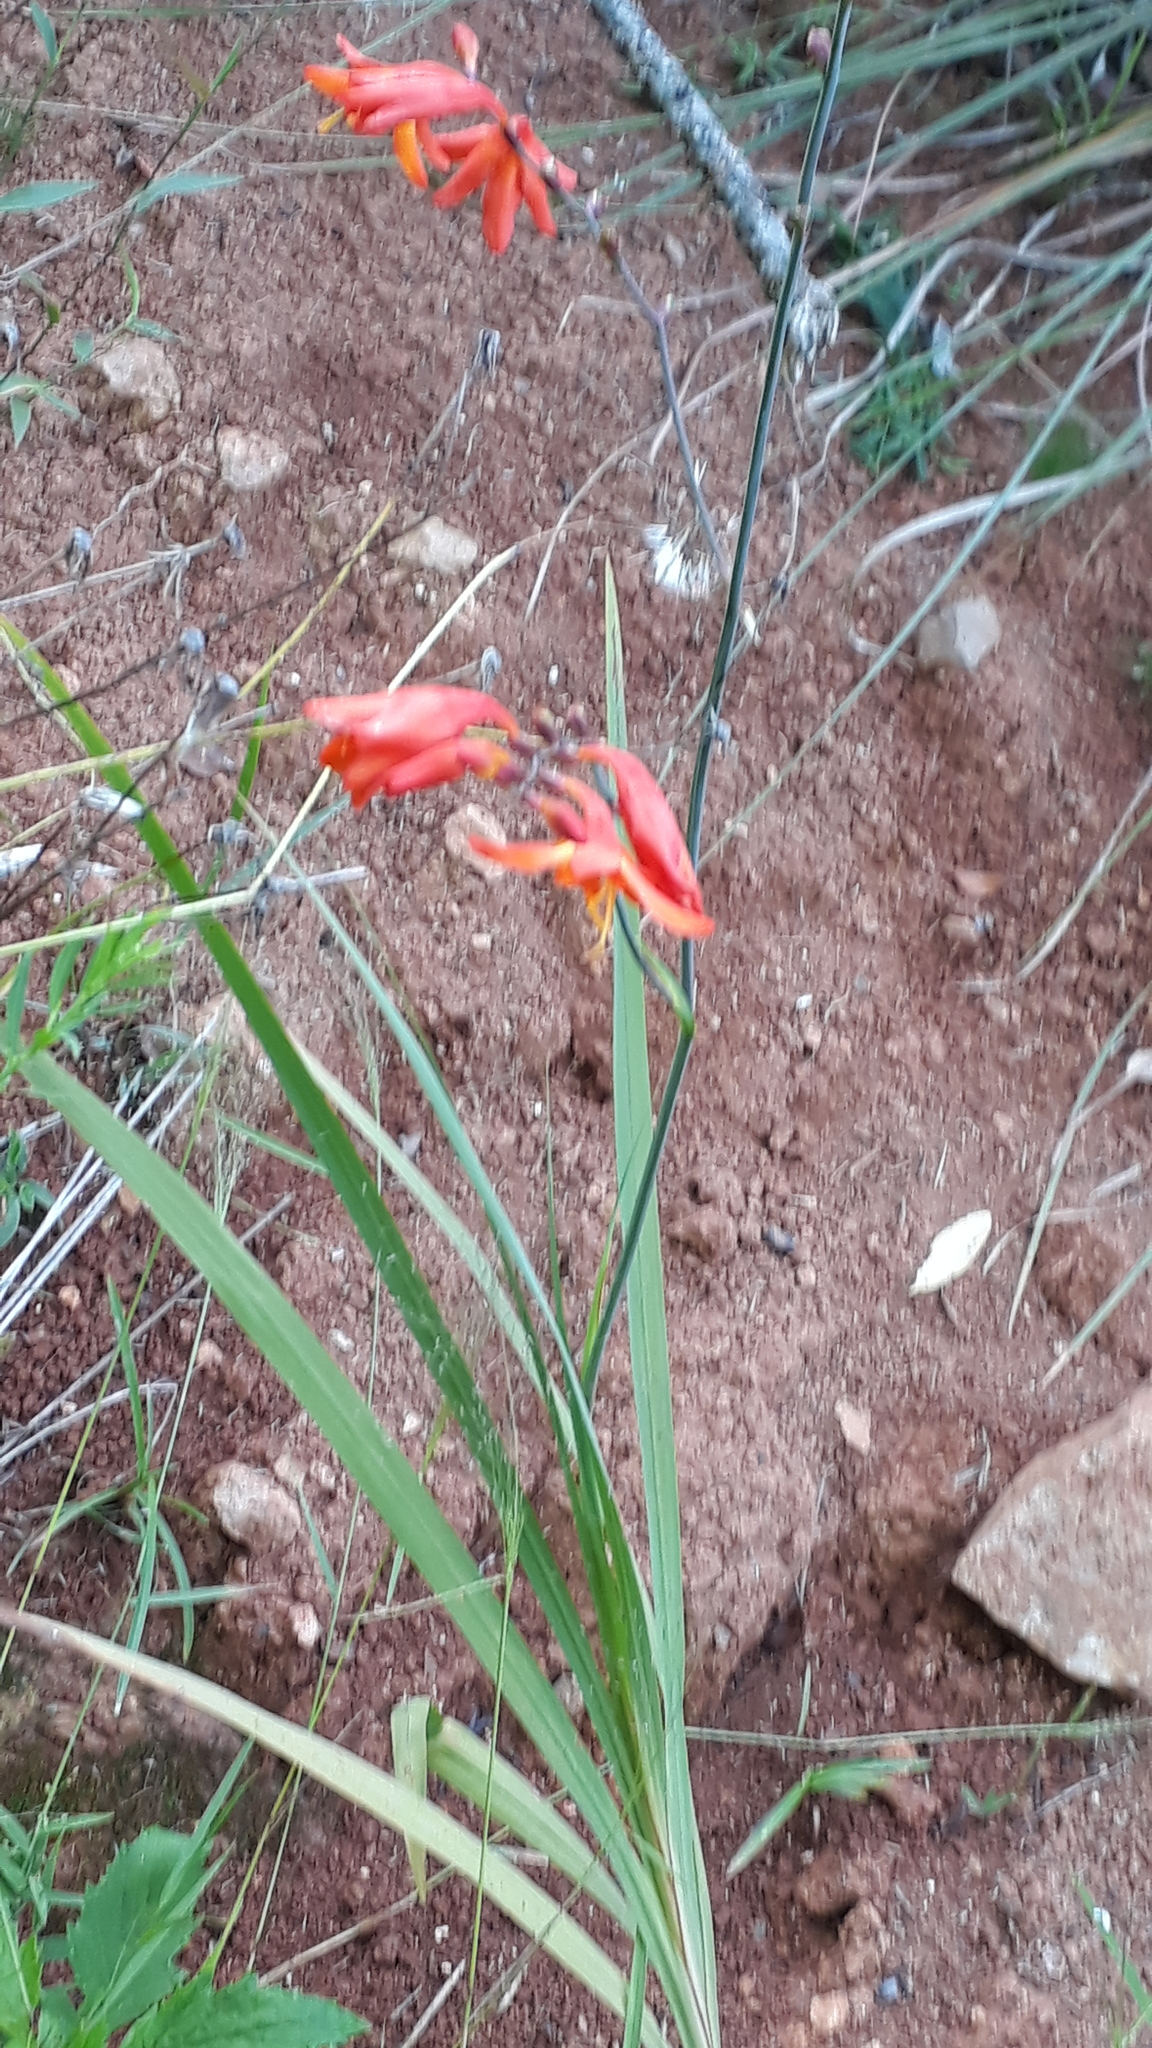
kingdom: Plantae
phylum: Tracheophyta
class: Liliopsida
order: Asparagales
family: Iridaceae
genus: Crocosmia
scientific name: Crocosmia crocosmiiflora
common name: Montbretia
